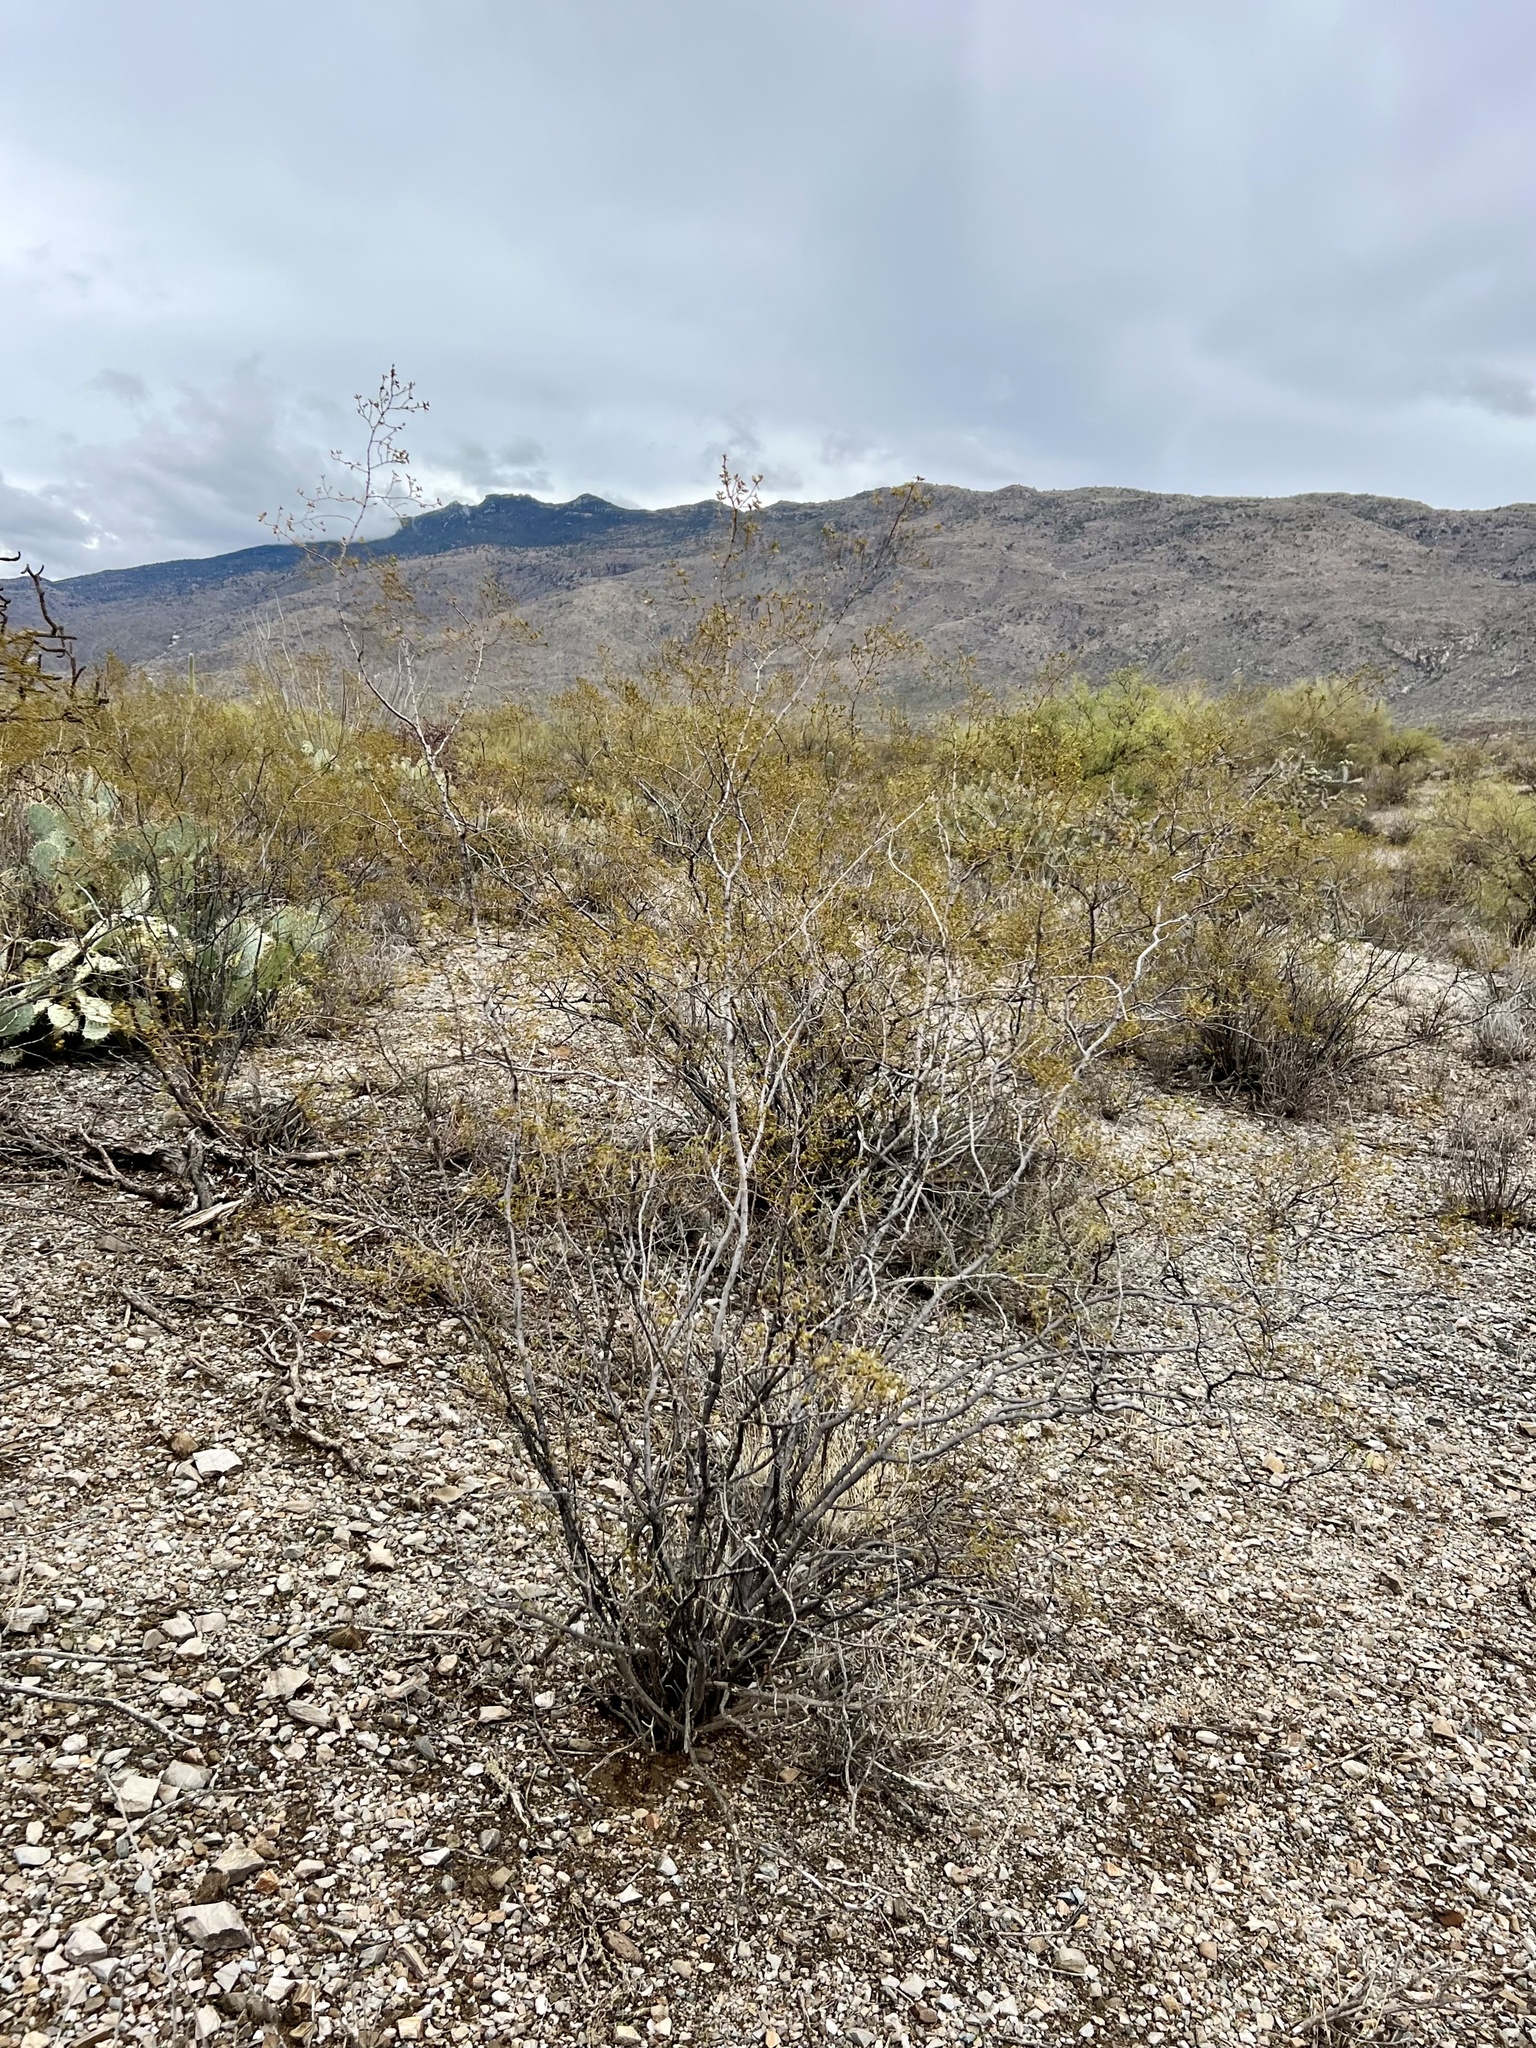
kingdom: Plantae
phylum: Tracheophyta
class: Magnoliopsida
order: Zygophyllales
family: Zygophyllaceae
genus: Larrea
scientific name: Larrea tridentata
